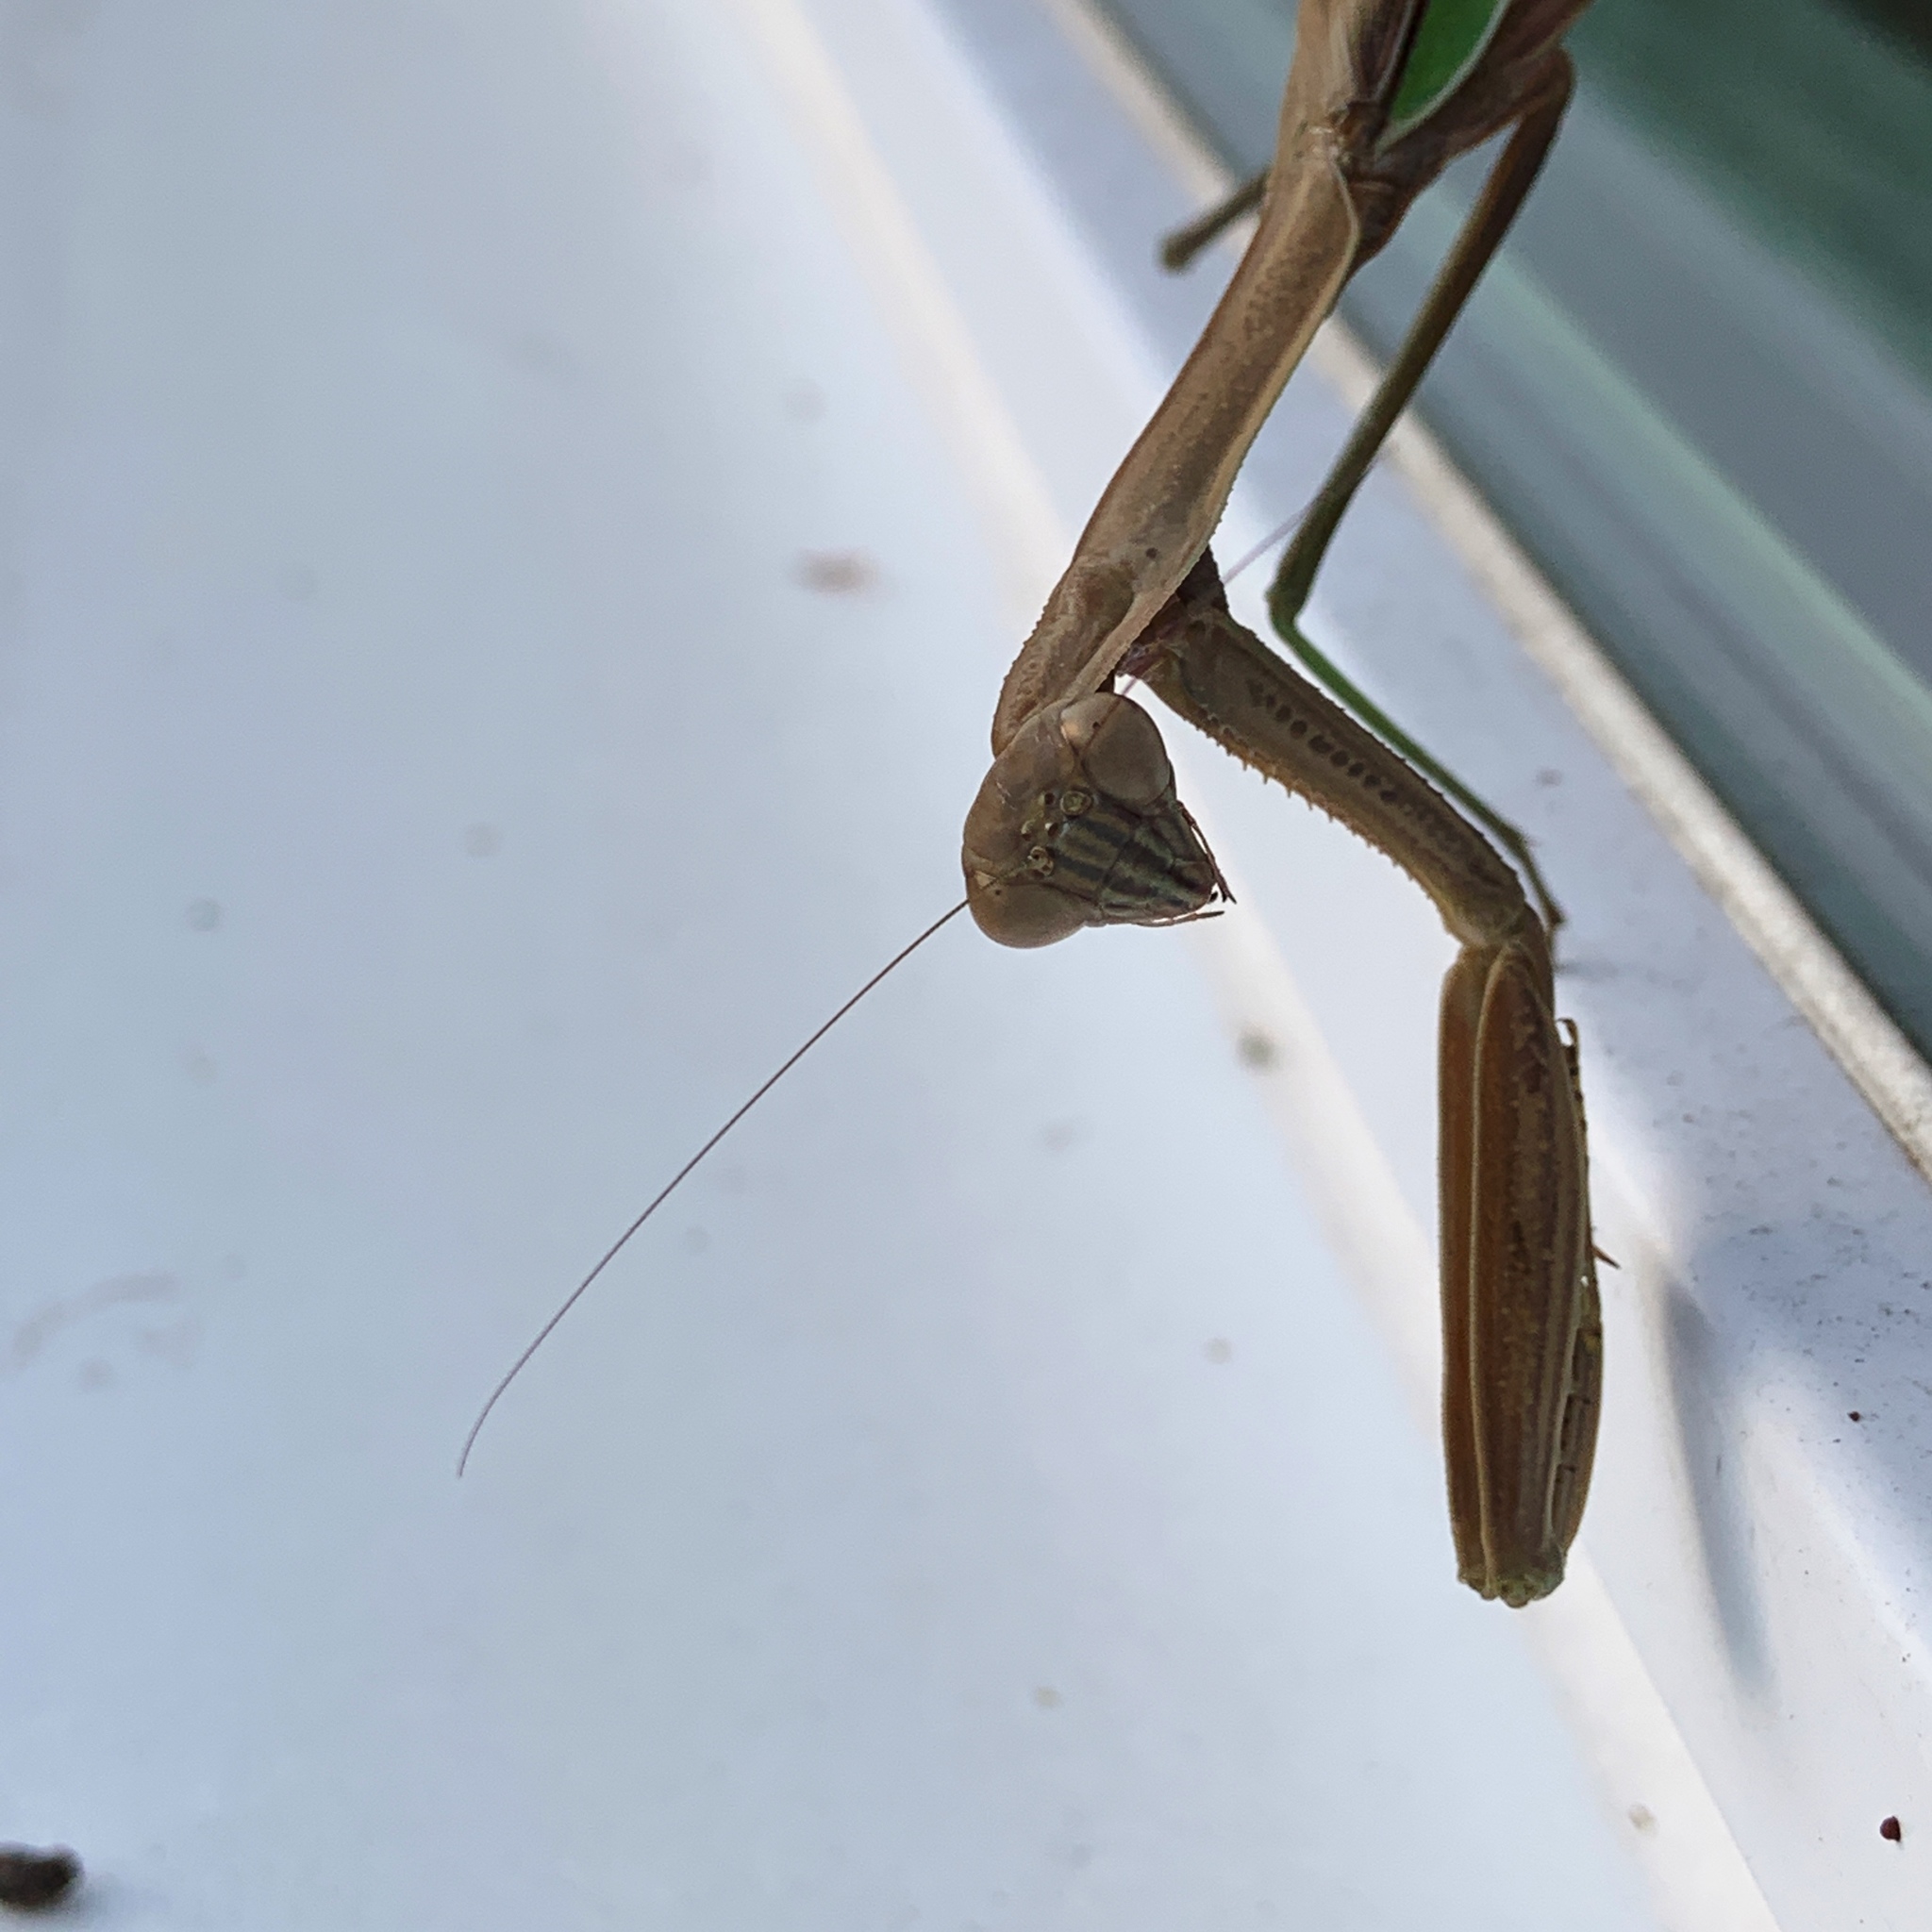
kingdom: Animalia
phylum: Arthropoda
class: Insecta
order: Mantodea
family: Mantidae
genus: Tenodera
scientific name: Tenodera sinensis
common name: Chinese mantis
